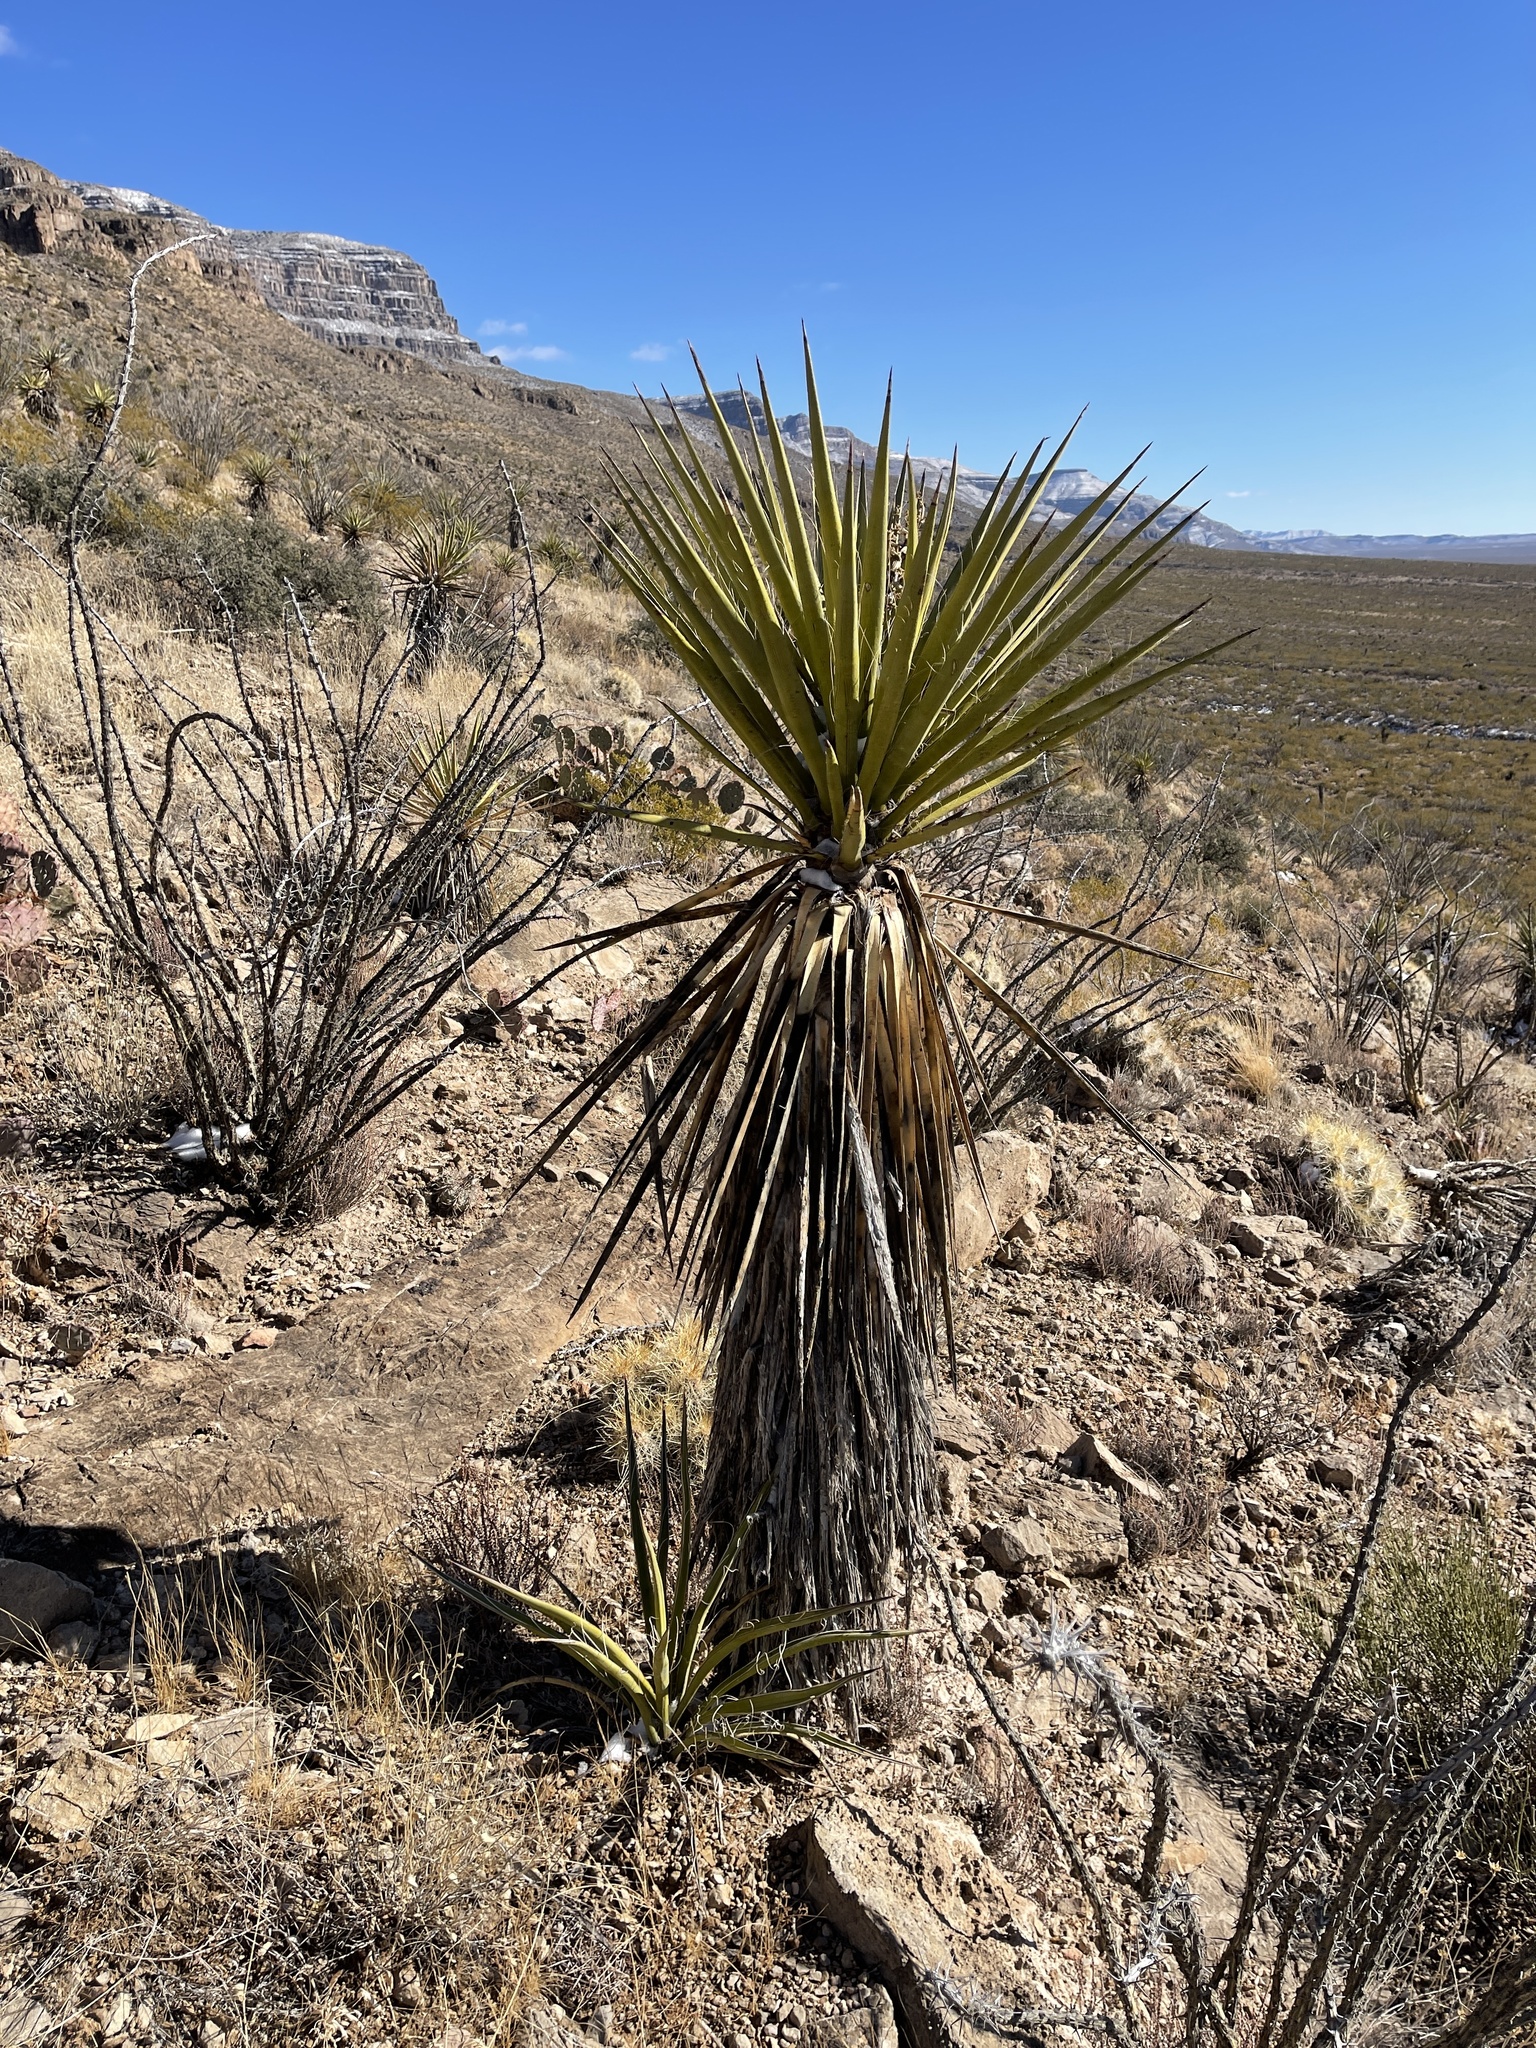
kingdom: Plantae
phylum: Tracheophyta
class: Liliopsida
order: Asparagales
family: Asparagaceae
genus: Yucca
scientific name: Yucca treculiana
